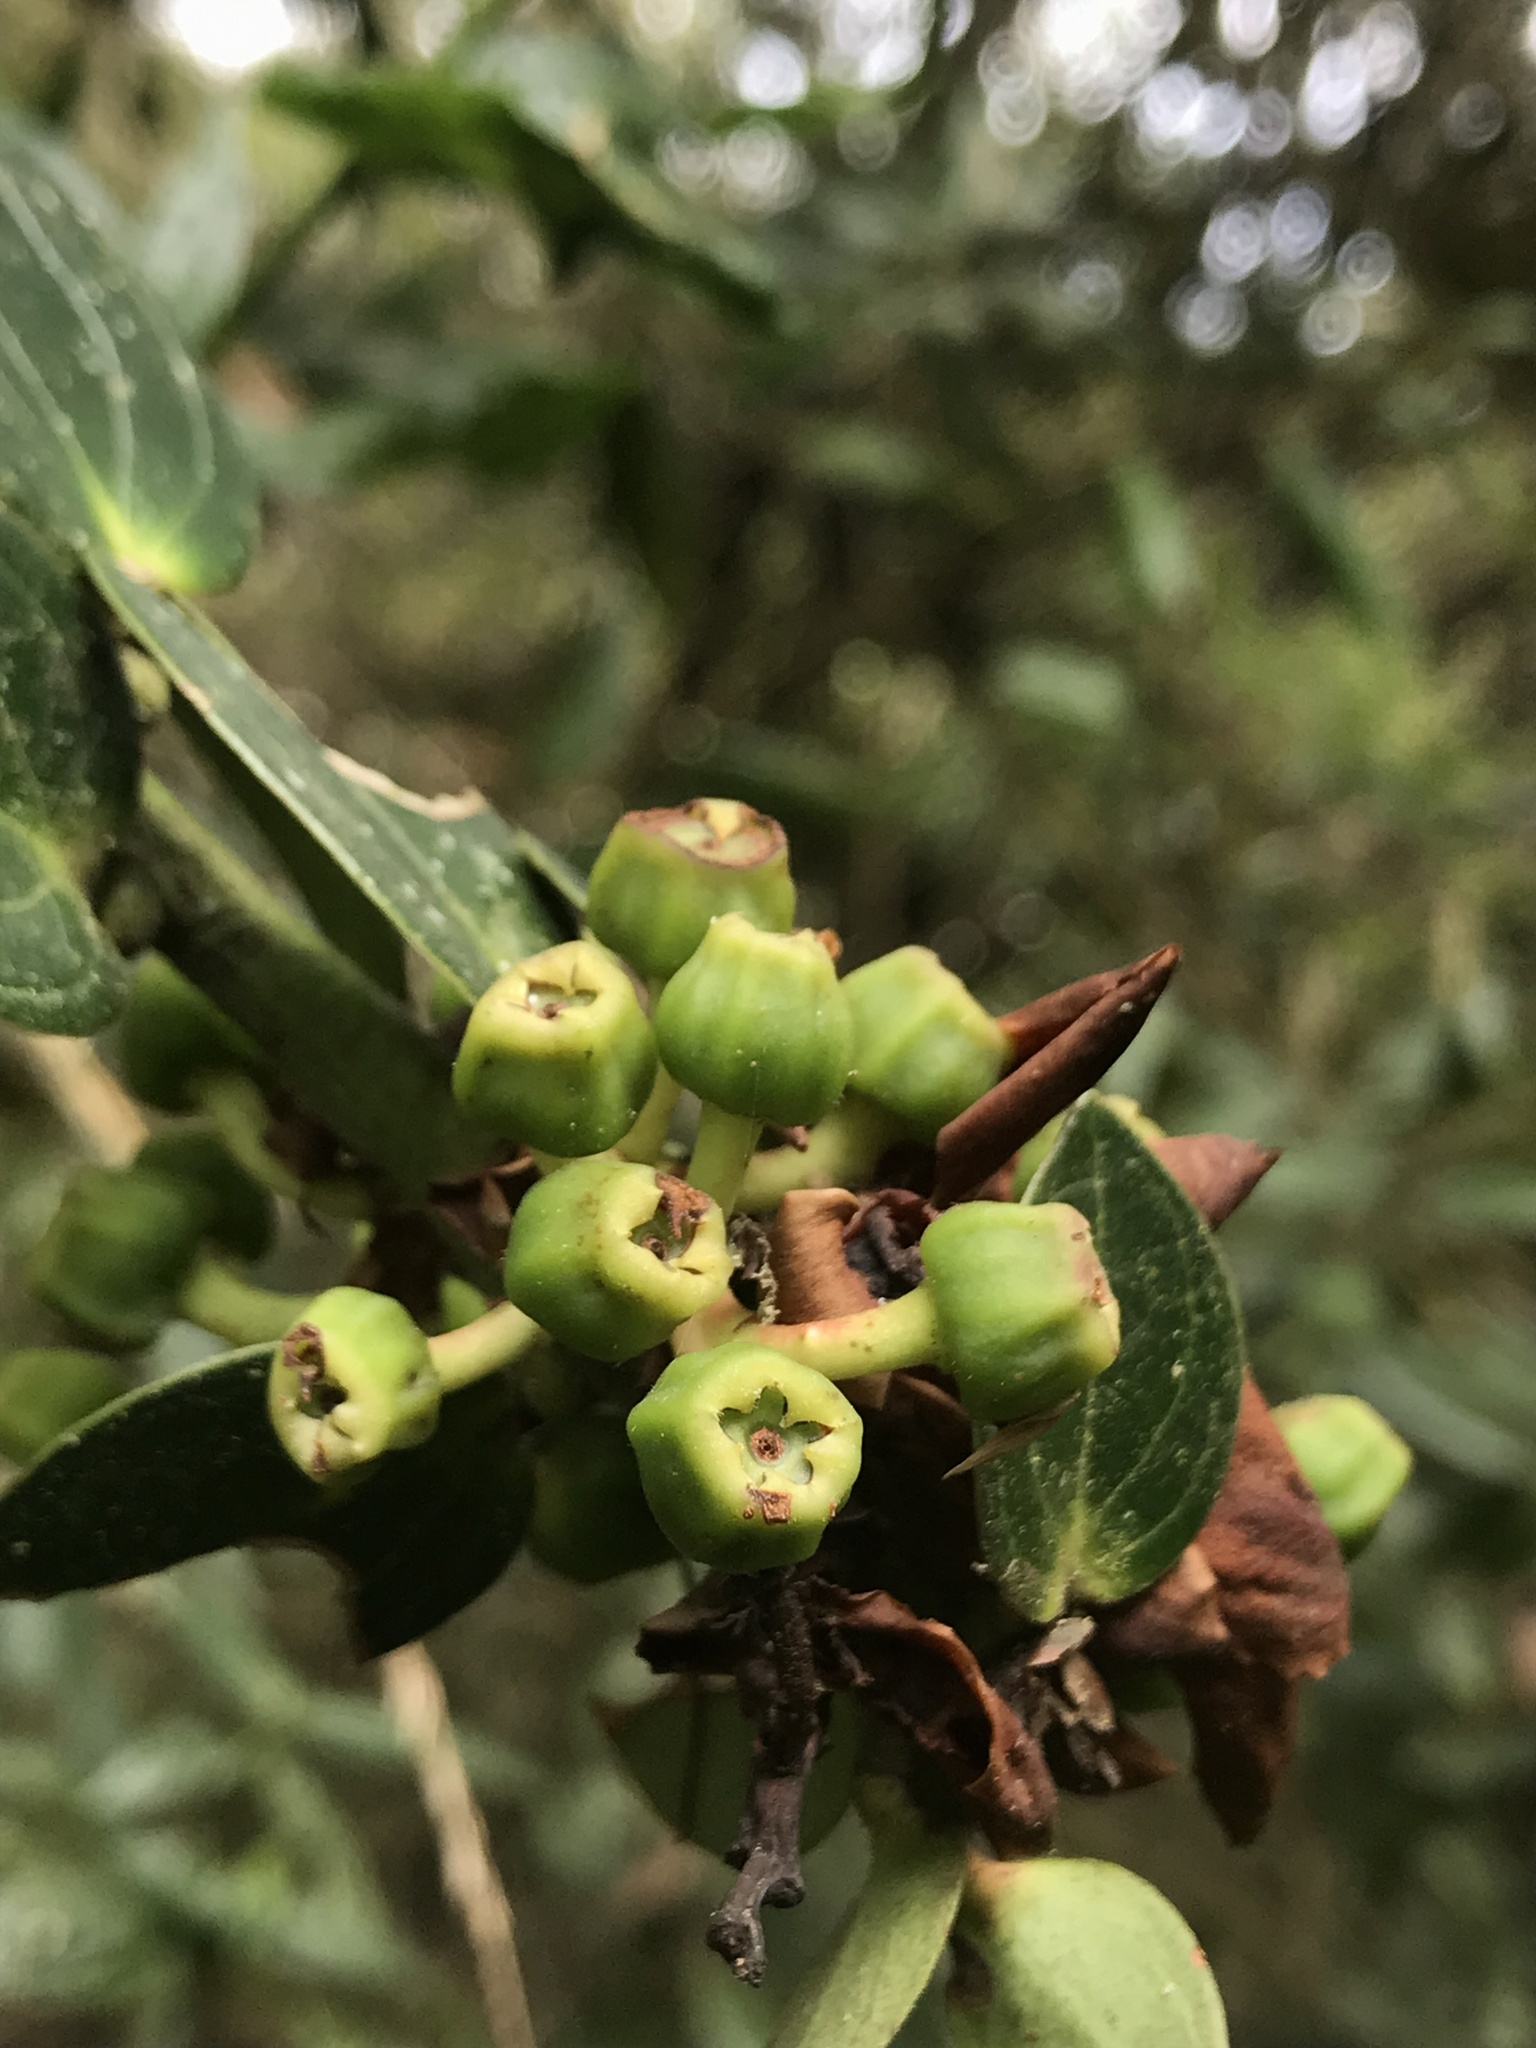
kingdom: Plantae
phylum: Tracheophyta
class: Magnoliopsida
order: Ericales
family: Ericaceae
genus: Cavendishia
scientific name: Cavendishia bracteata
